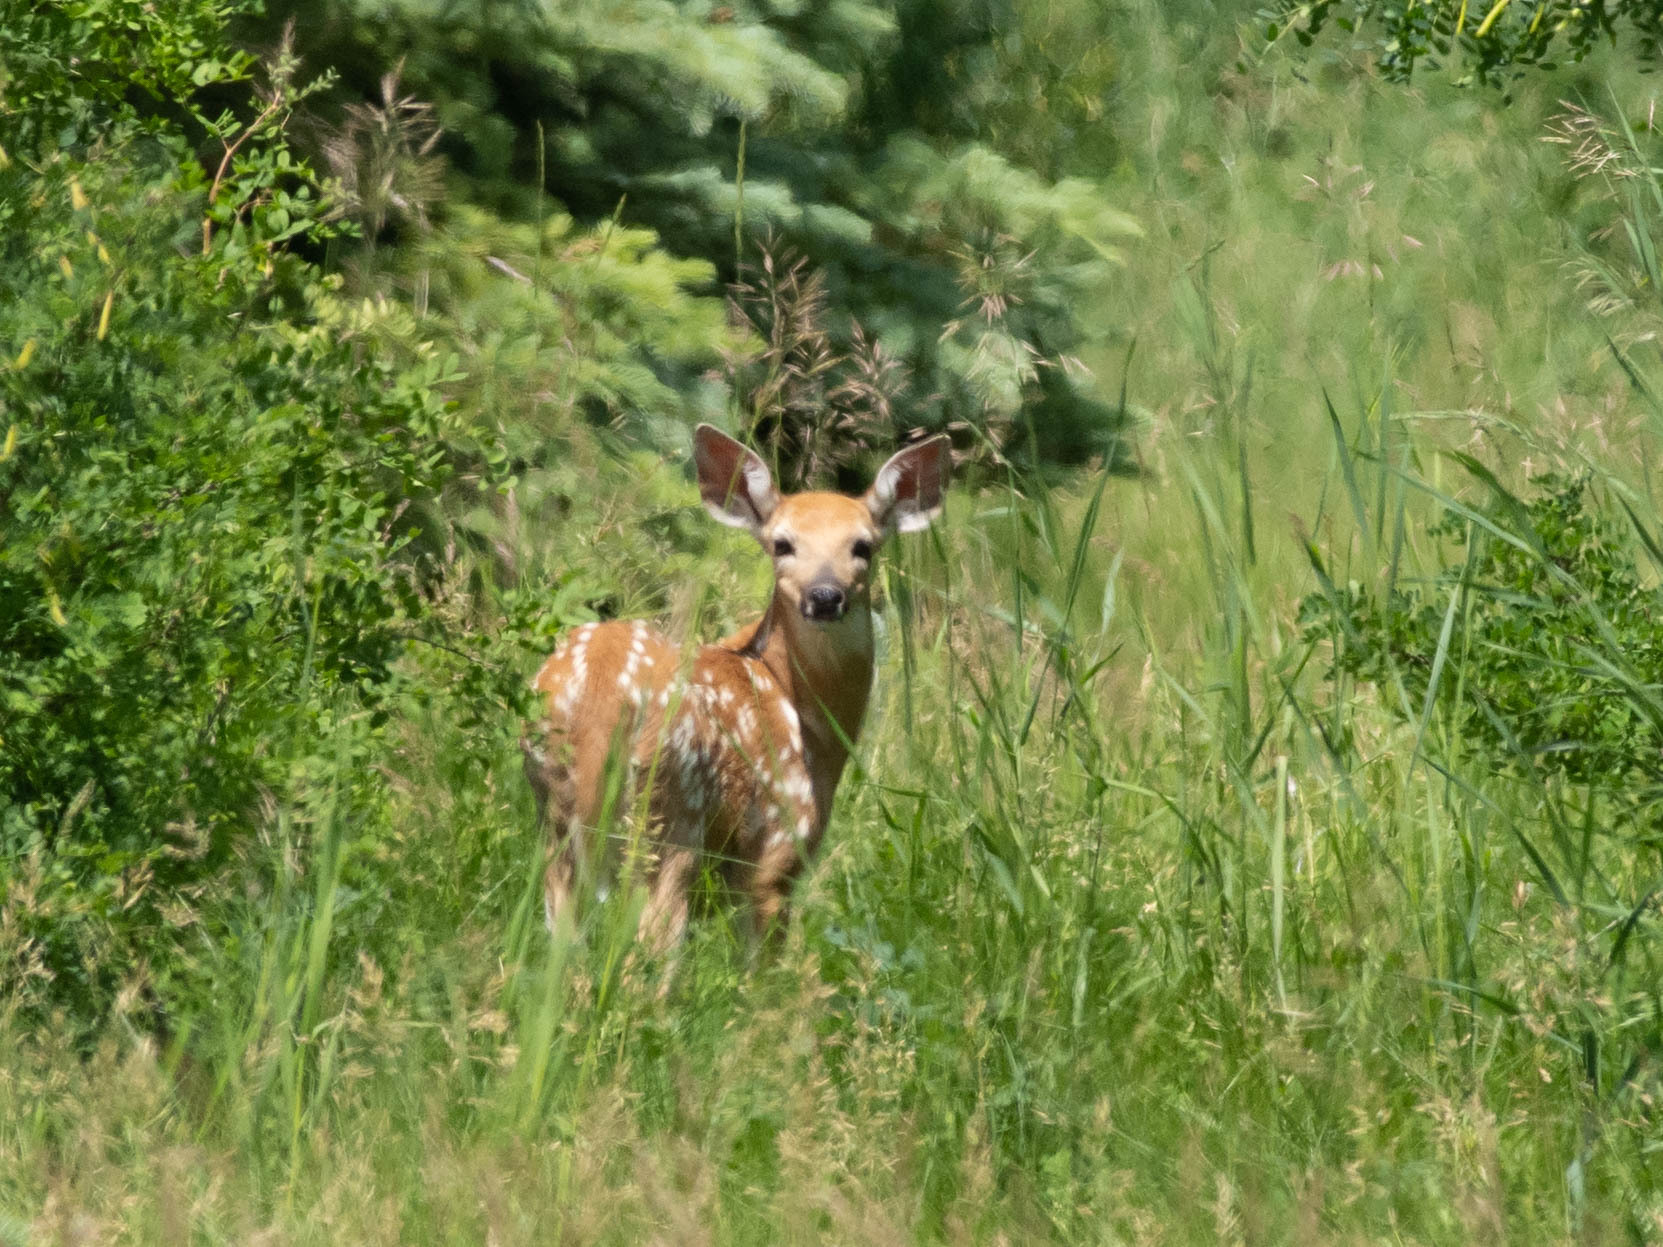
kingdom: Animalia
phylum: Chordata
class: Mammalia
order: Artiodactyla
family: Cervidae
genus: Odocoileus
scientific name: Odocoileus virginianus
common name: White-tailed deer
